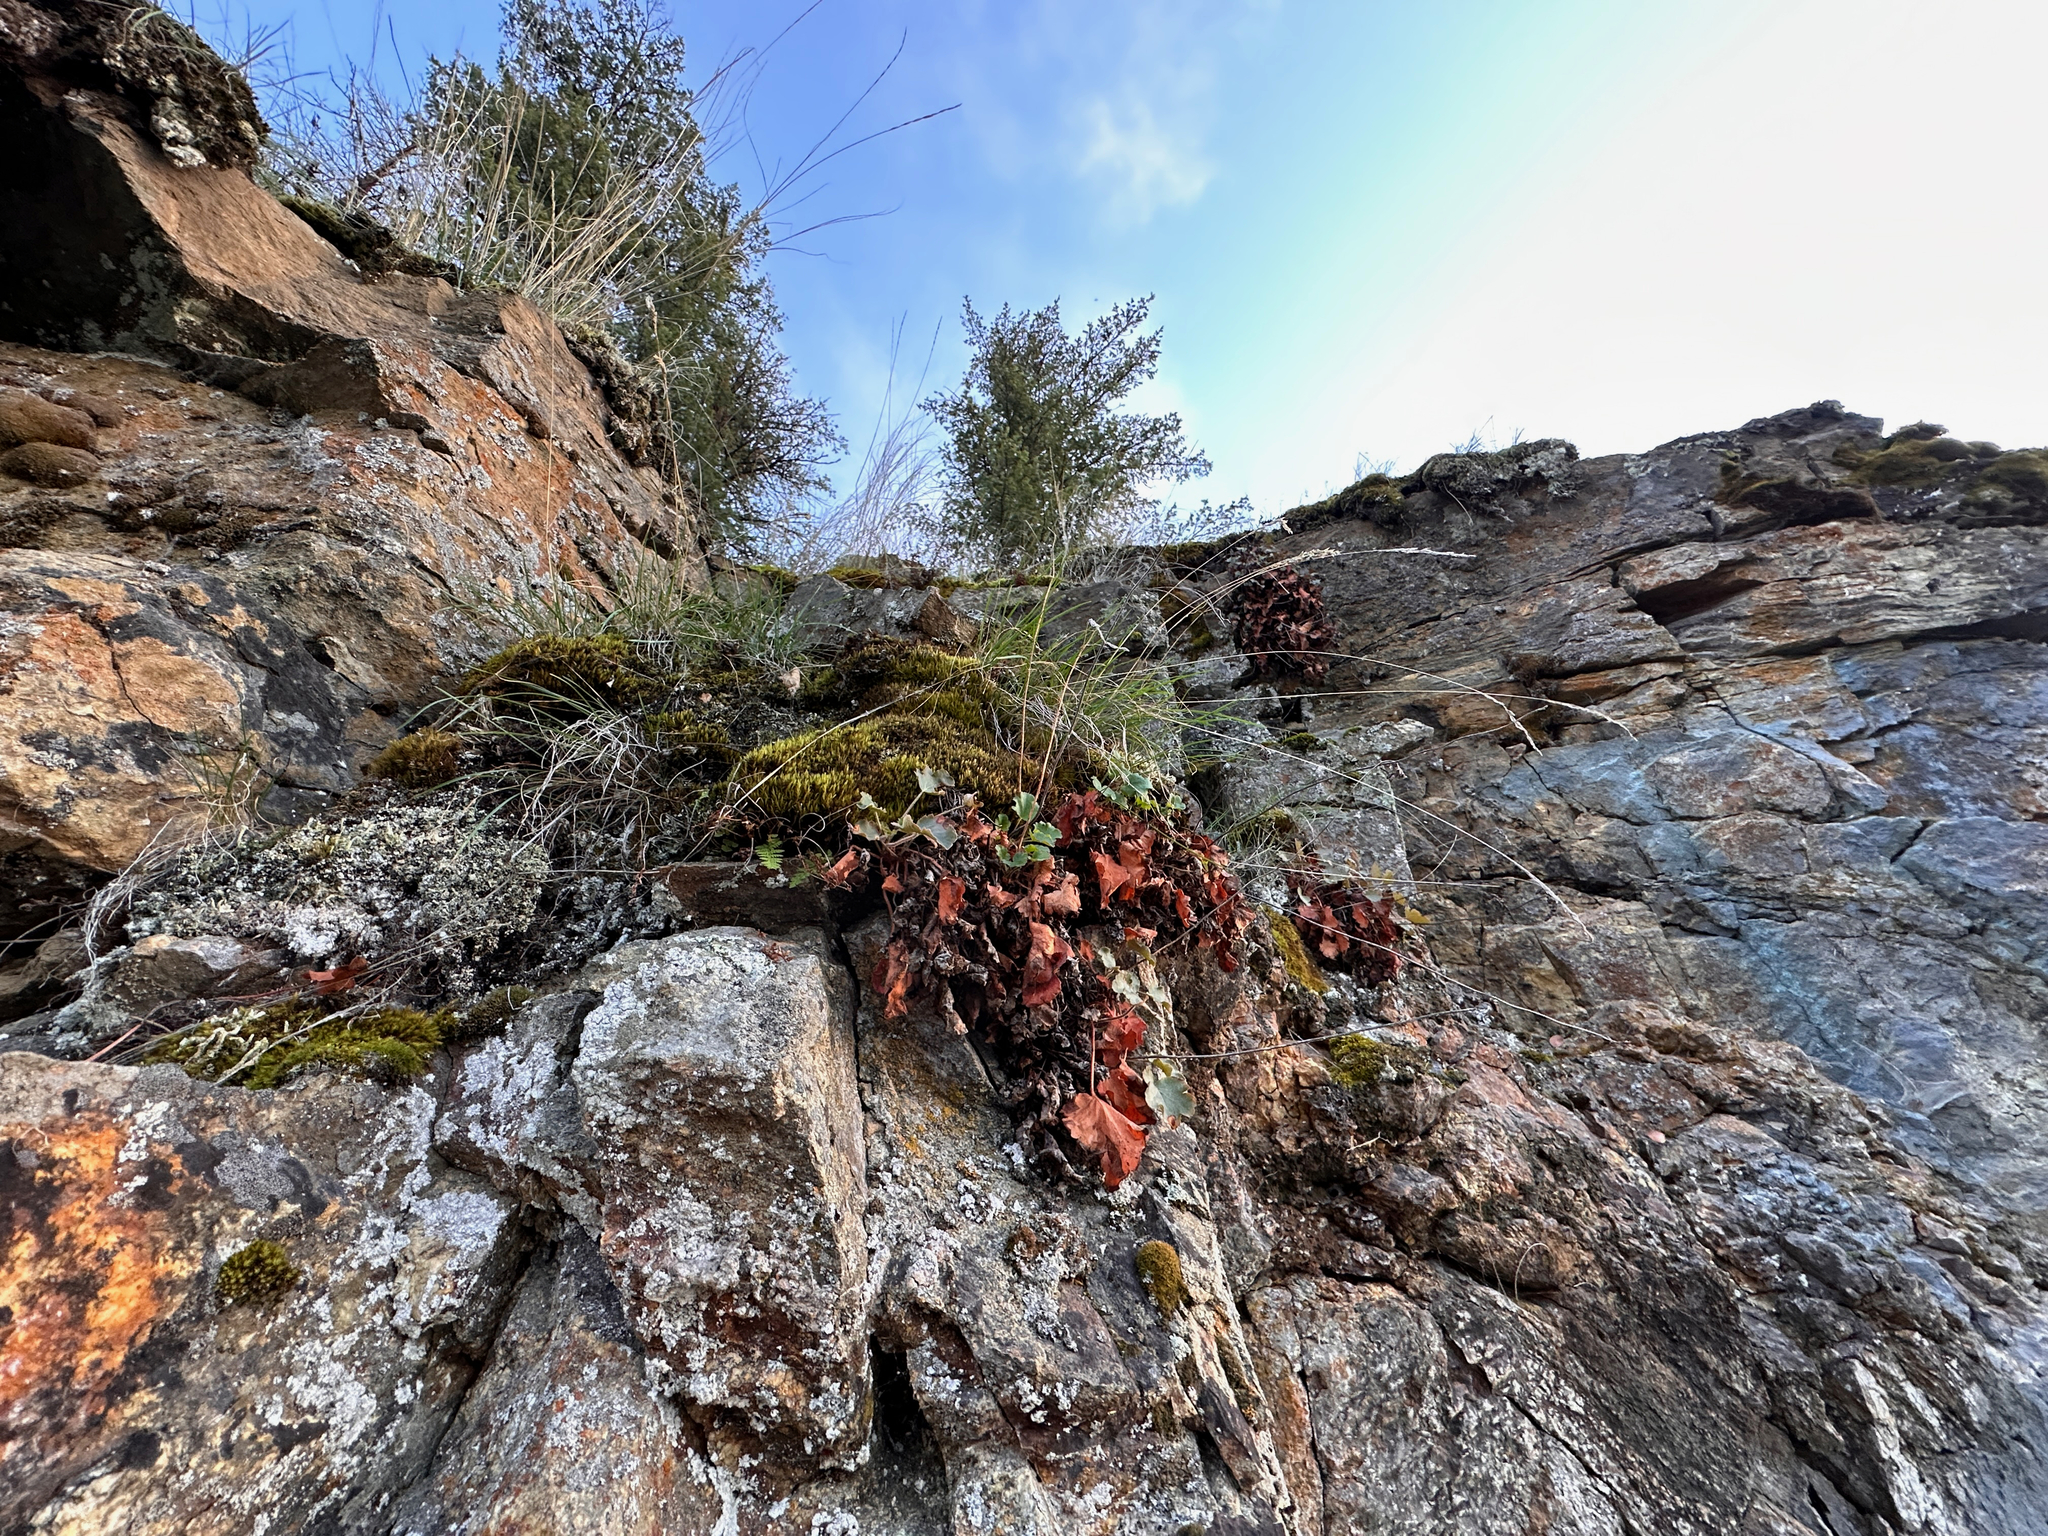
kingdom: Plantae
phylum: Tracheophyta
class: Magnoliopsida
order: Saxifragales
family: Saxifragaceae
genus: Heuchera
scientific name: Heuchera cylindrica
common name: Mat alumroot
